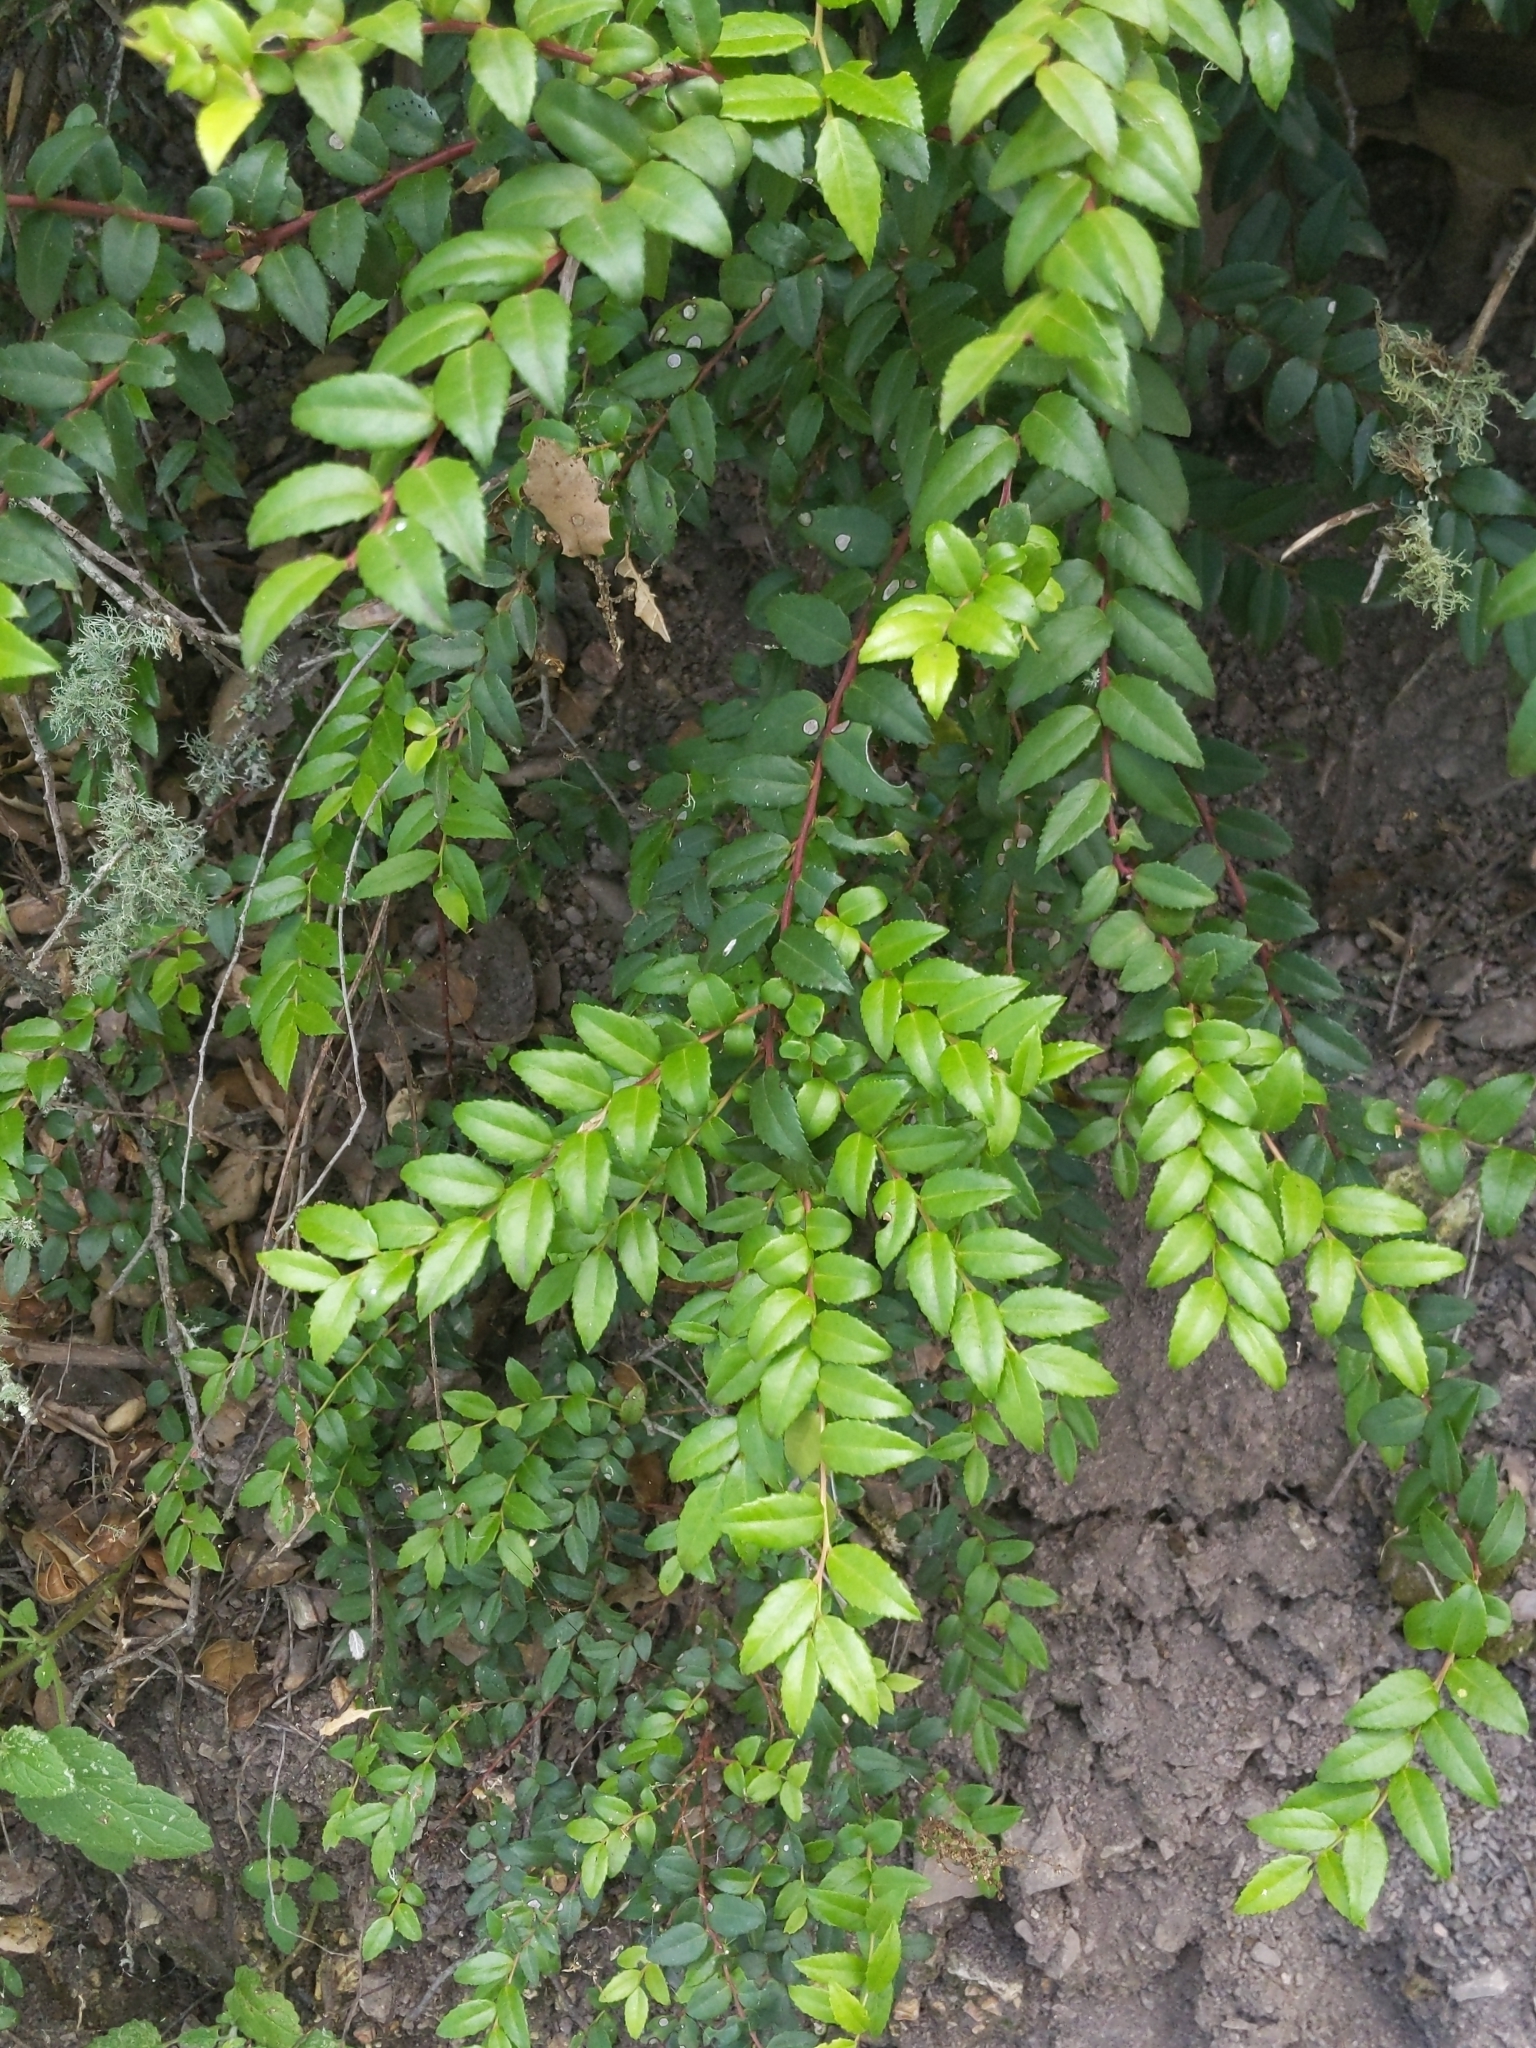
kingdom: Plantae
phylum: Tracheophyta
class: Magnoliopsida
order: Ericales
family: Ericaceae
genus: Vaccinium
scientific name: Vaccinium ovatum
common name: California-huckleberry
